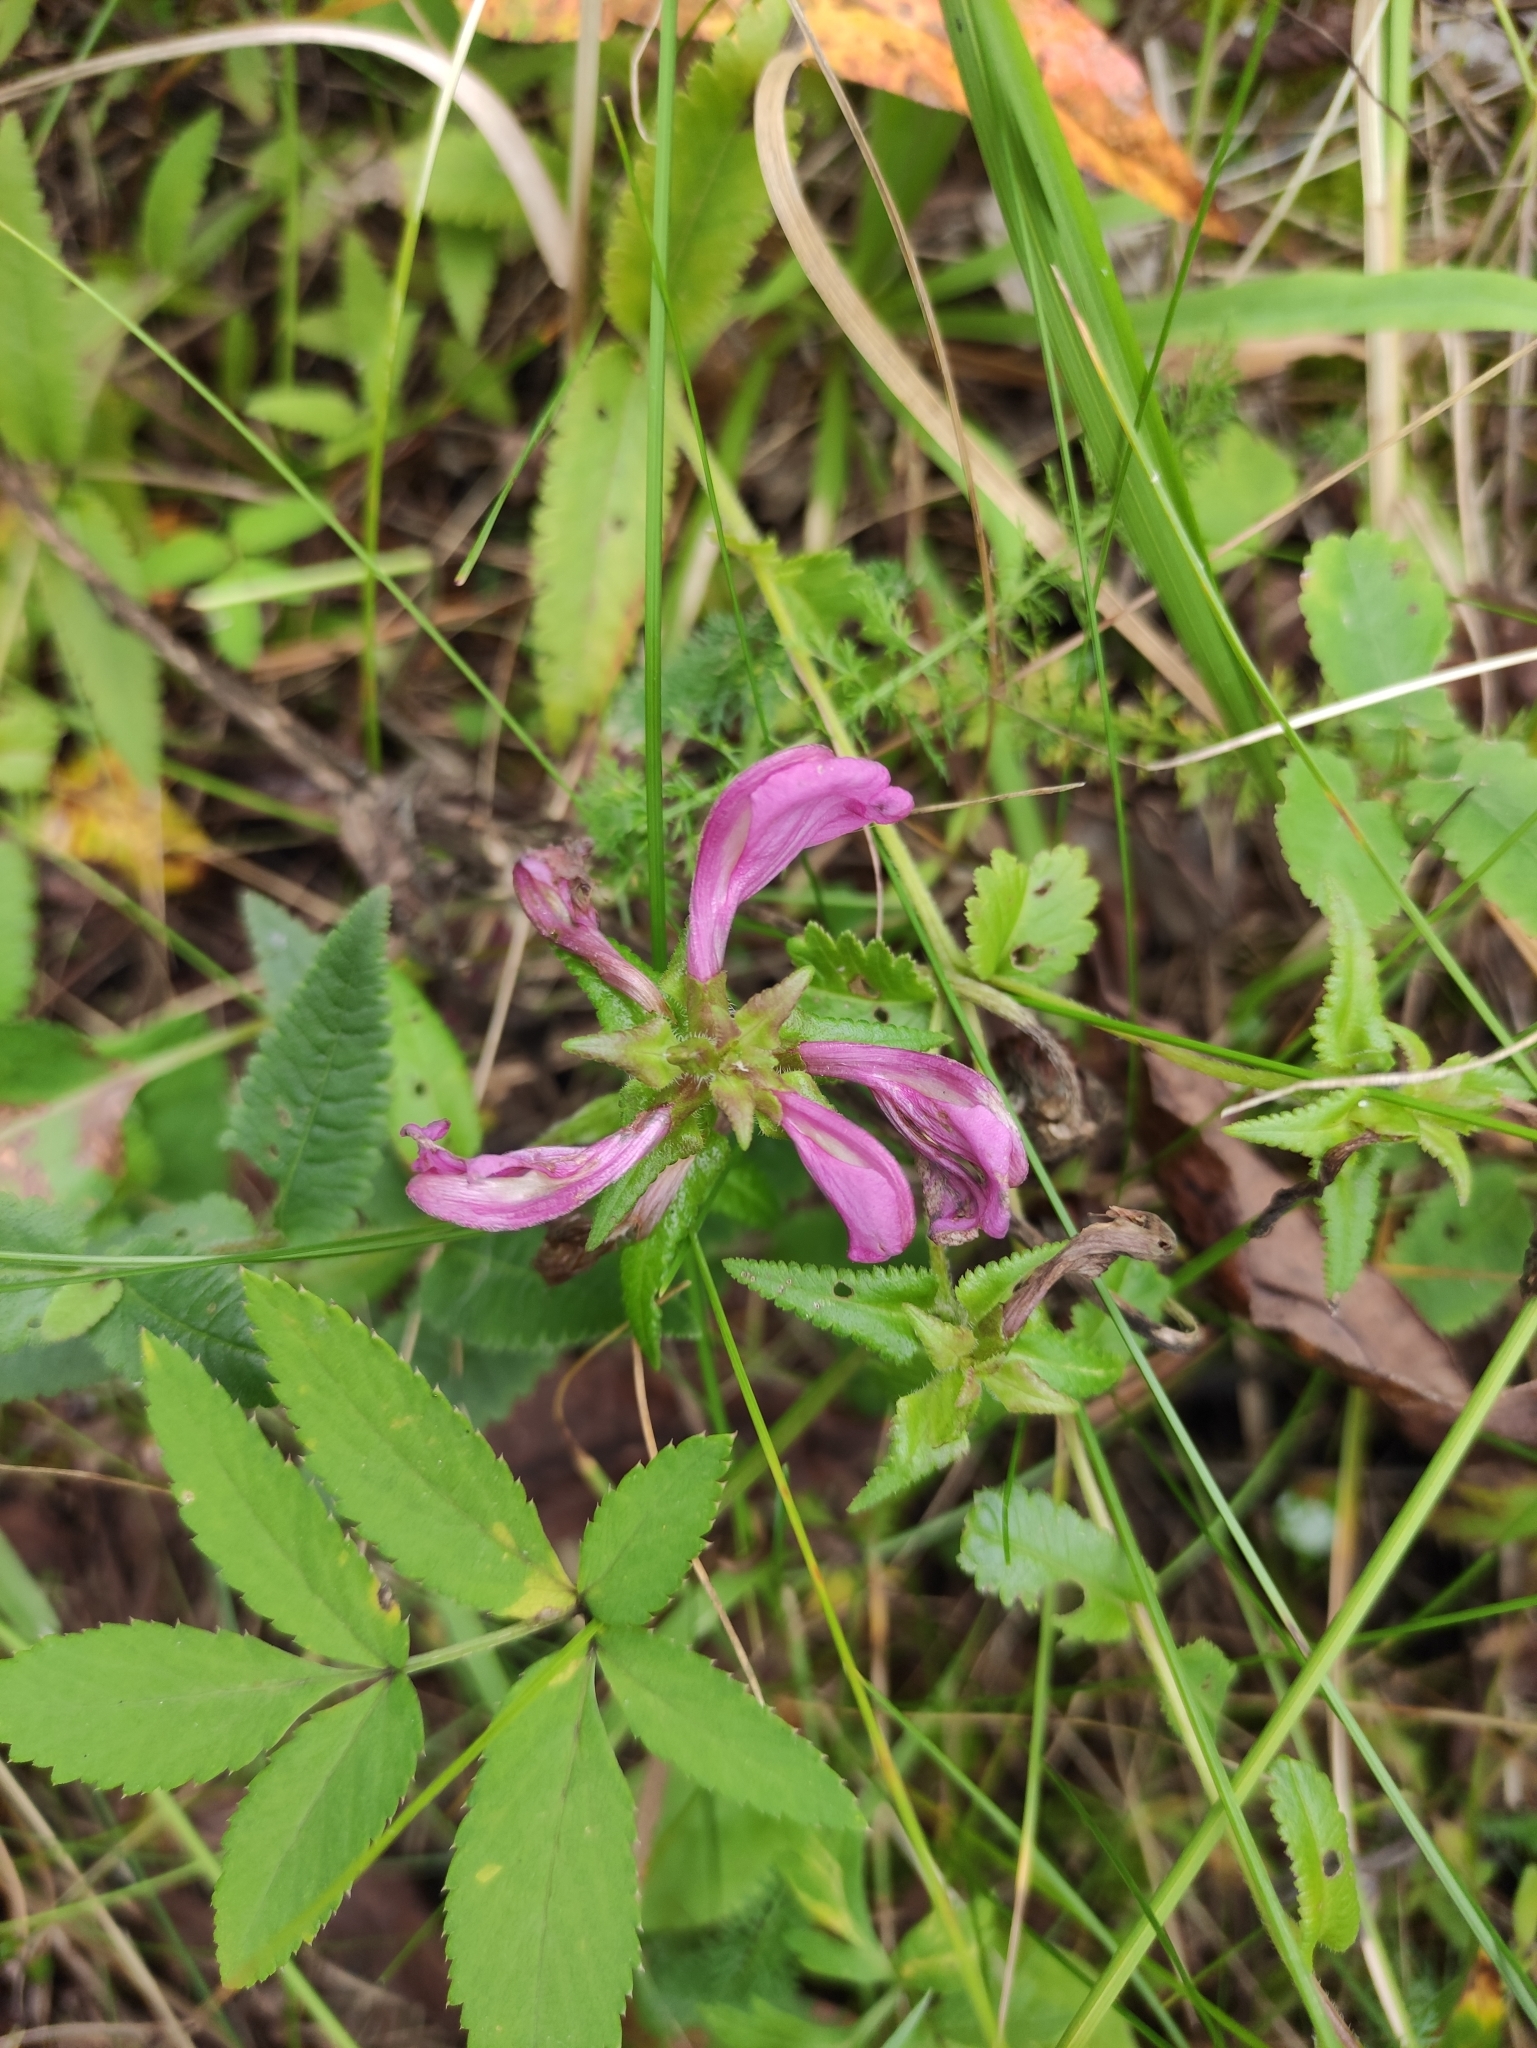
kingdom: Plantae
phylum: Tracheophyta
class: Magnoliopsida
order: Lamiales
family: Orobanchaceae
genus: Pedicularis
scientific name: Pedicularis resupinata
